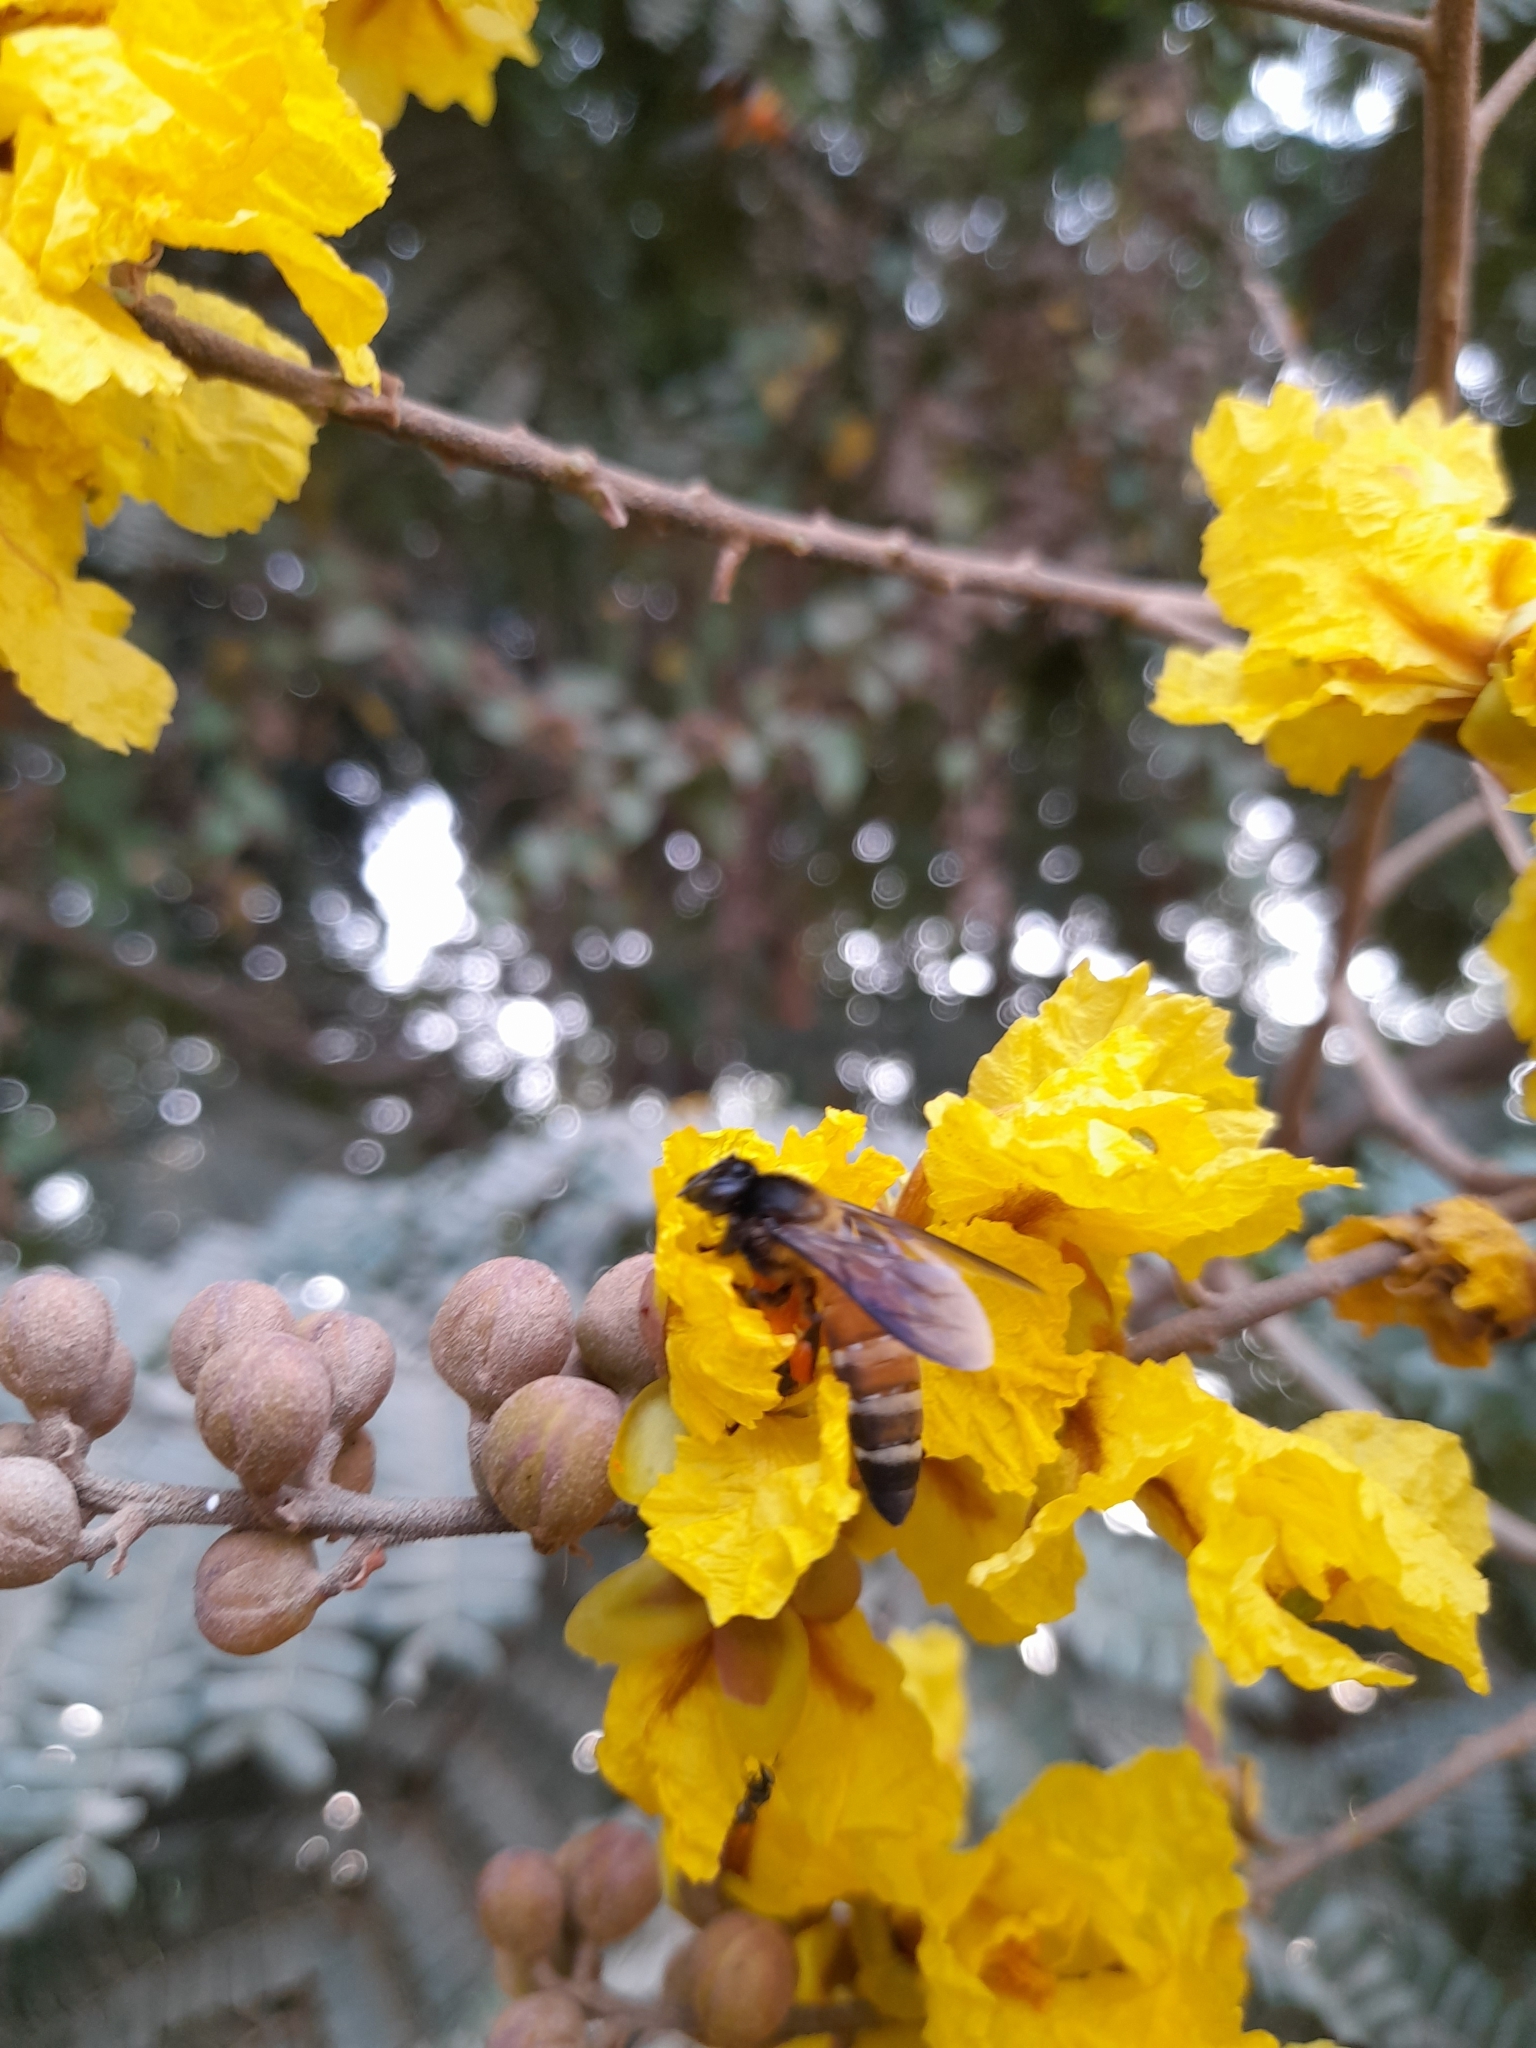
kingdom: Animalia
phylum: Arthropoda
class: Insecta
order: Hymenoptera
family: Apidae
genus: Apis
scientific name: Apis dorsata
